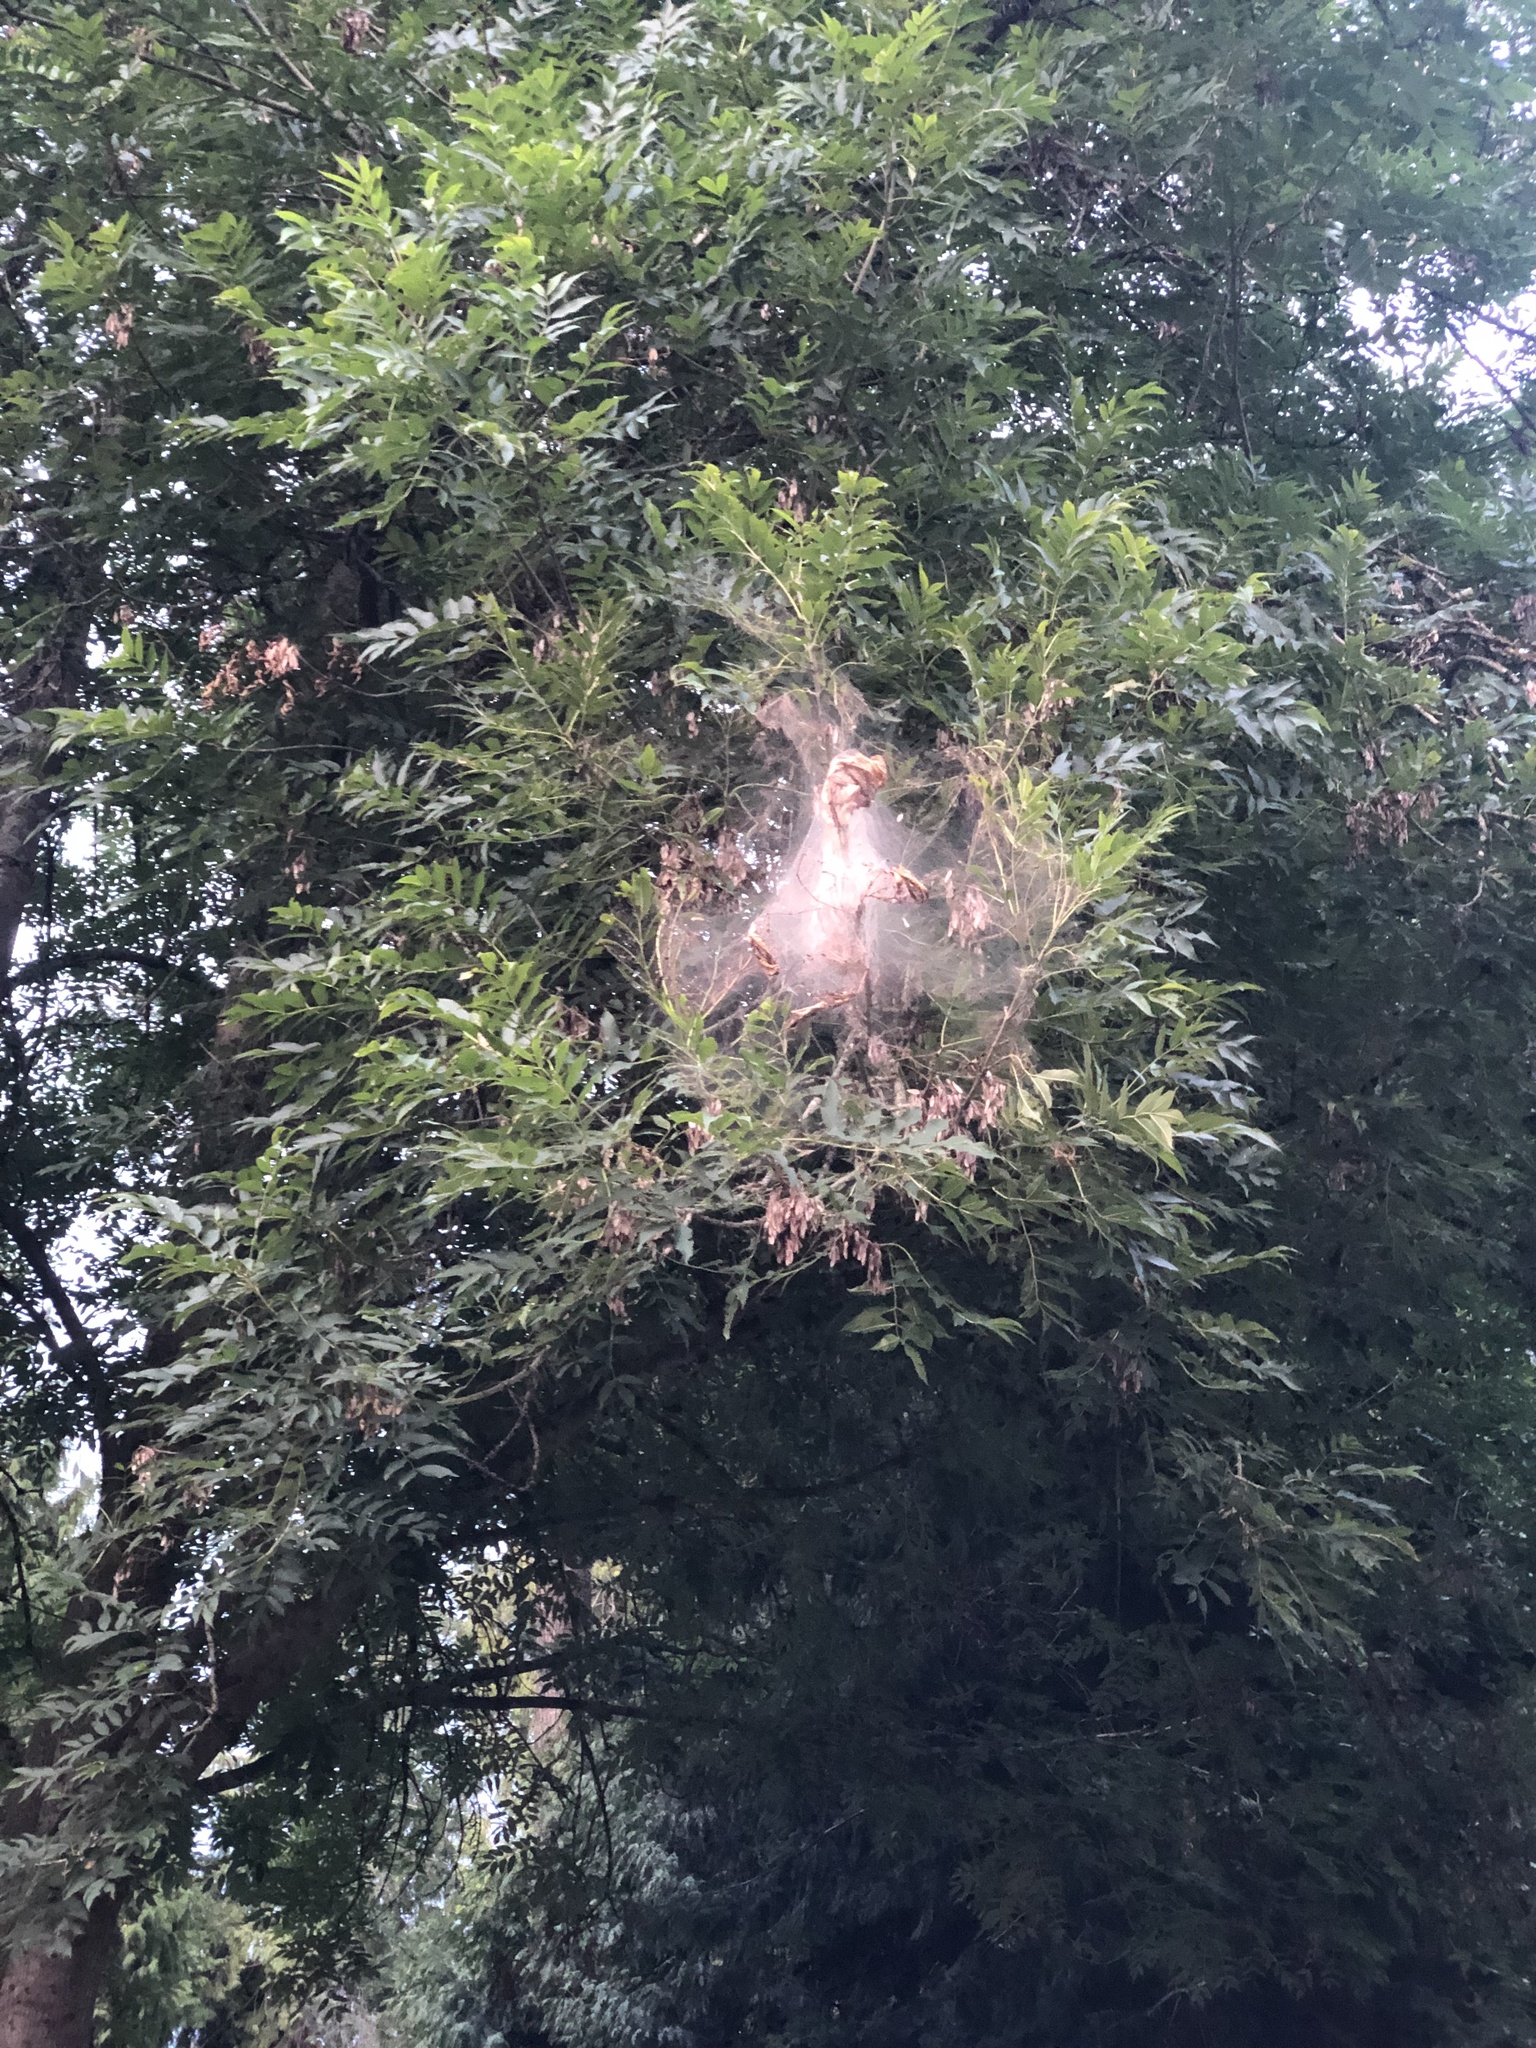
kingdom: Animalia
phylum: Arthropoda
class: Insecta
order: Lepidoptera
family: Erebidae
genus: Hyphantria
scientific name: Hyphantria cunea
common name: American white moth
